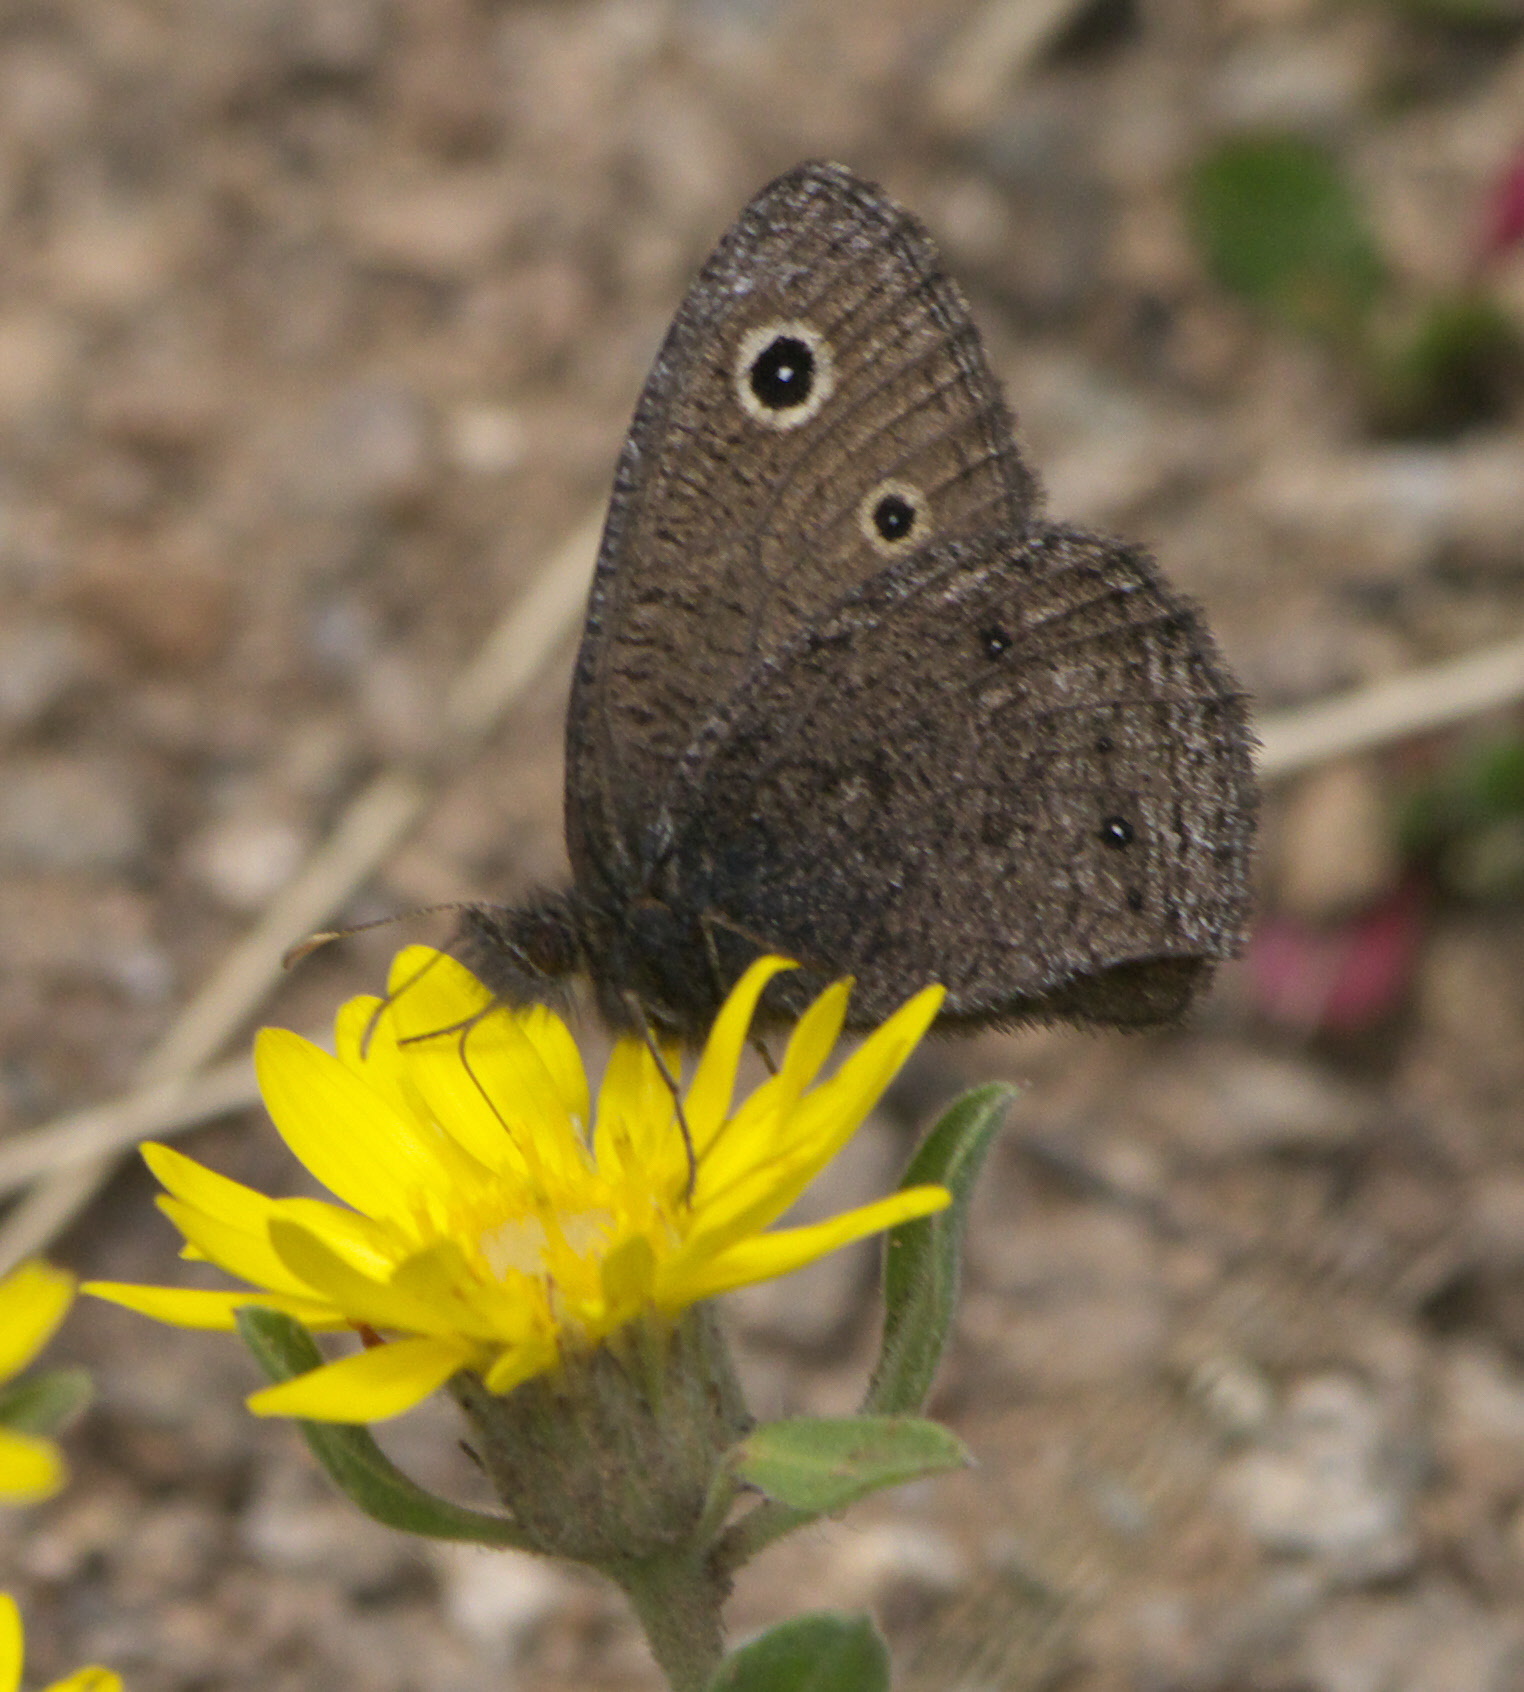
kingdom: Animalia
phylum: Arthropoda
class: Insecta
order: Lepidoptera
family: Nymphalidae
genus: Cercyonis
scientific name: Cercyonis oetus
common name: Small wood-nymph
